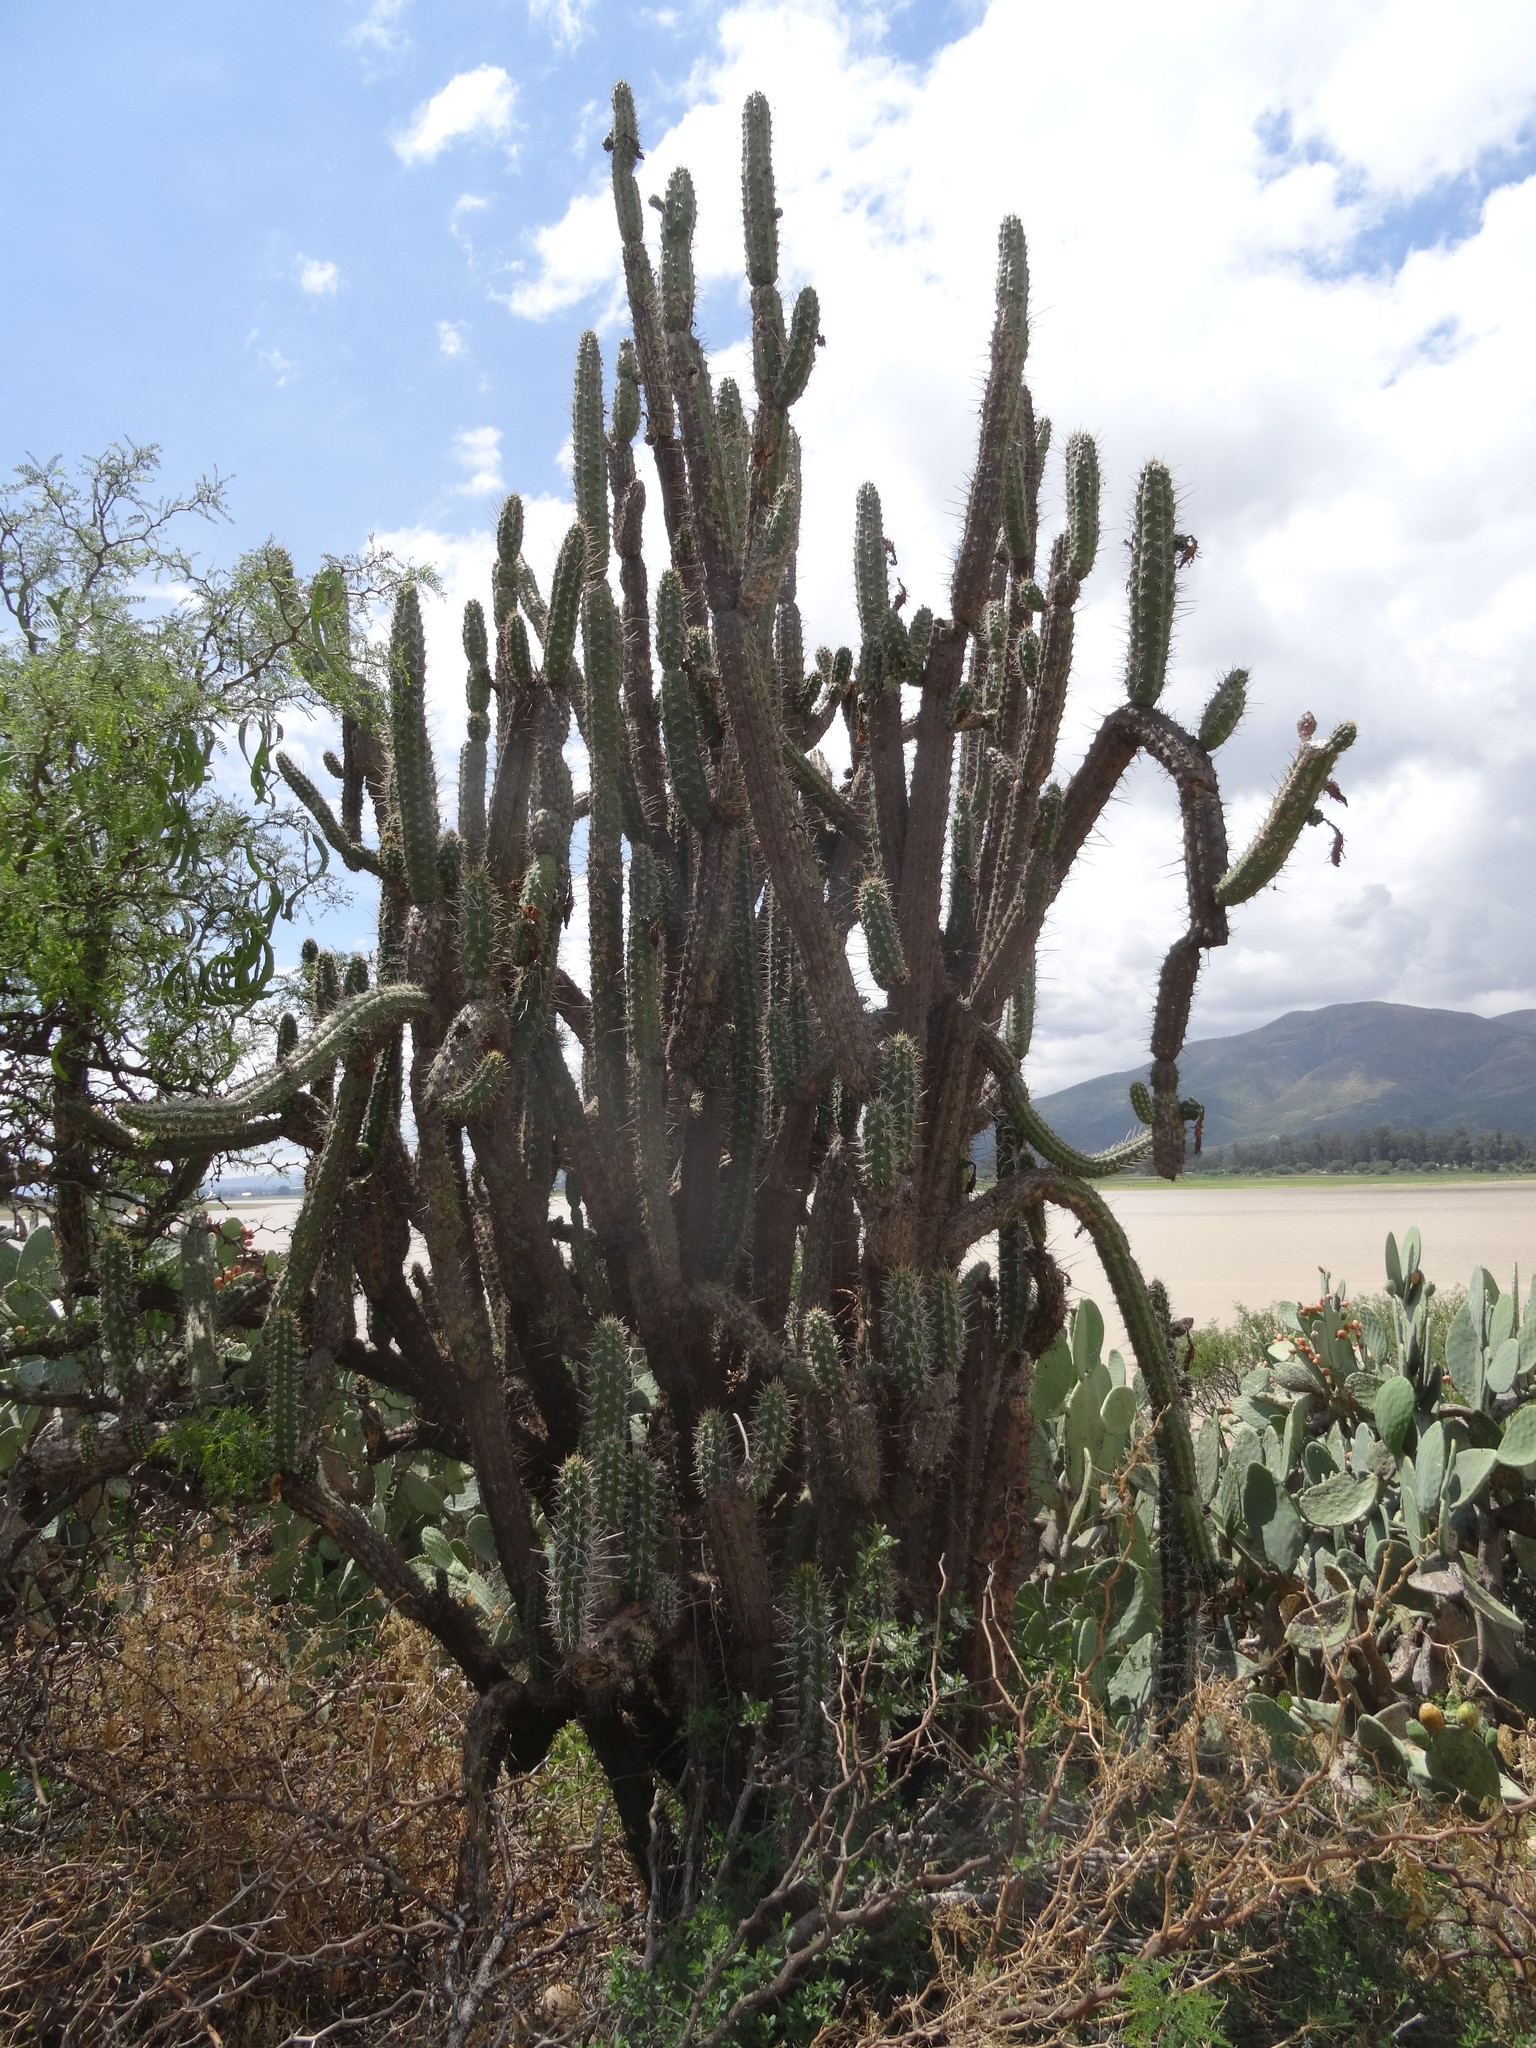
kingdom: Plantae
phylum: Tracheophyta
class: Magnoliopsida
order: Caryophyllales
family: Cactaceae
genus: Harrisia
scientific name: Harrisia tetracantha
